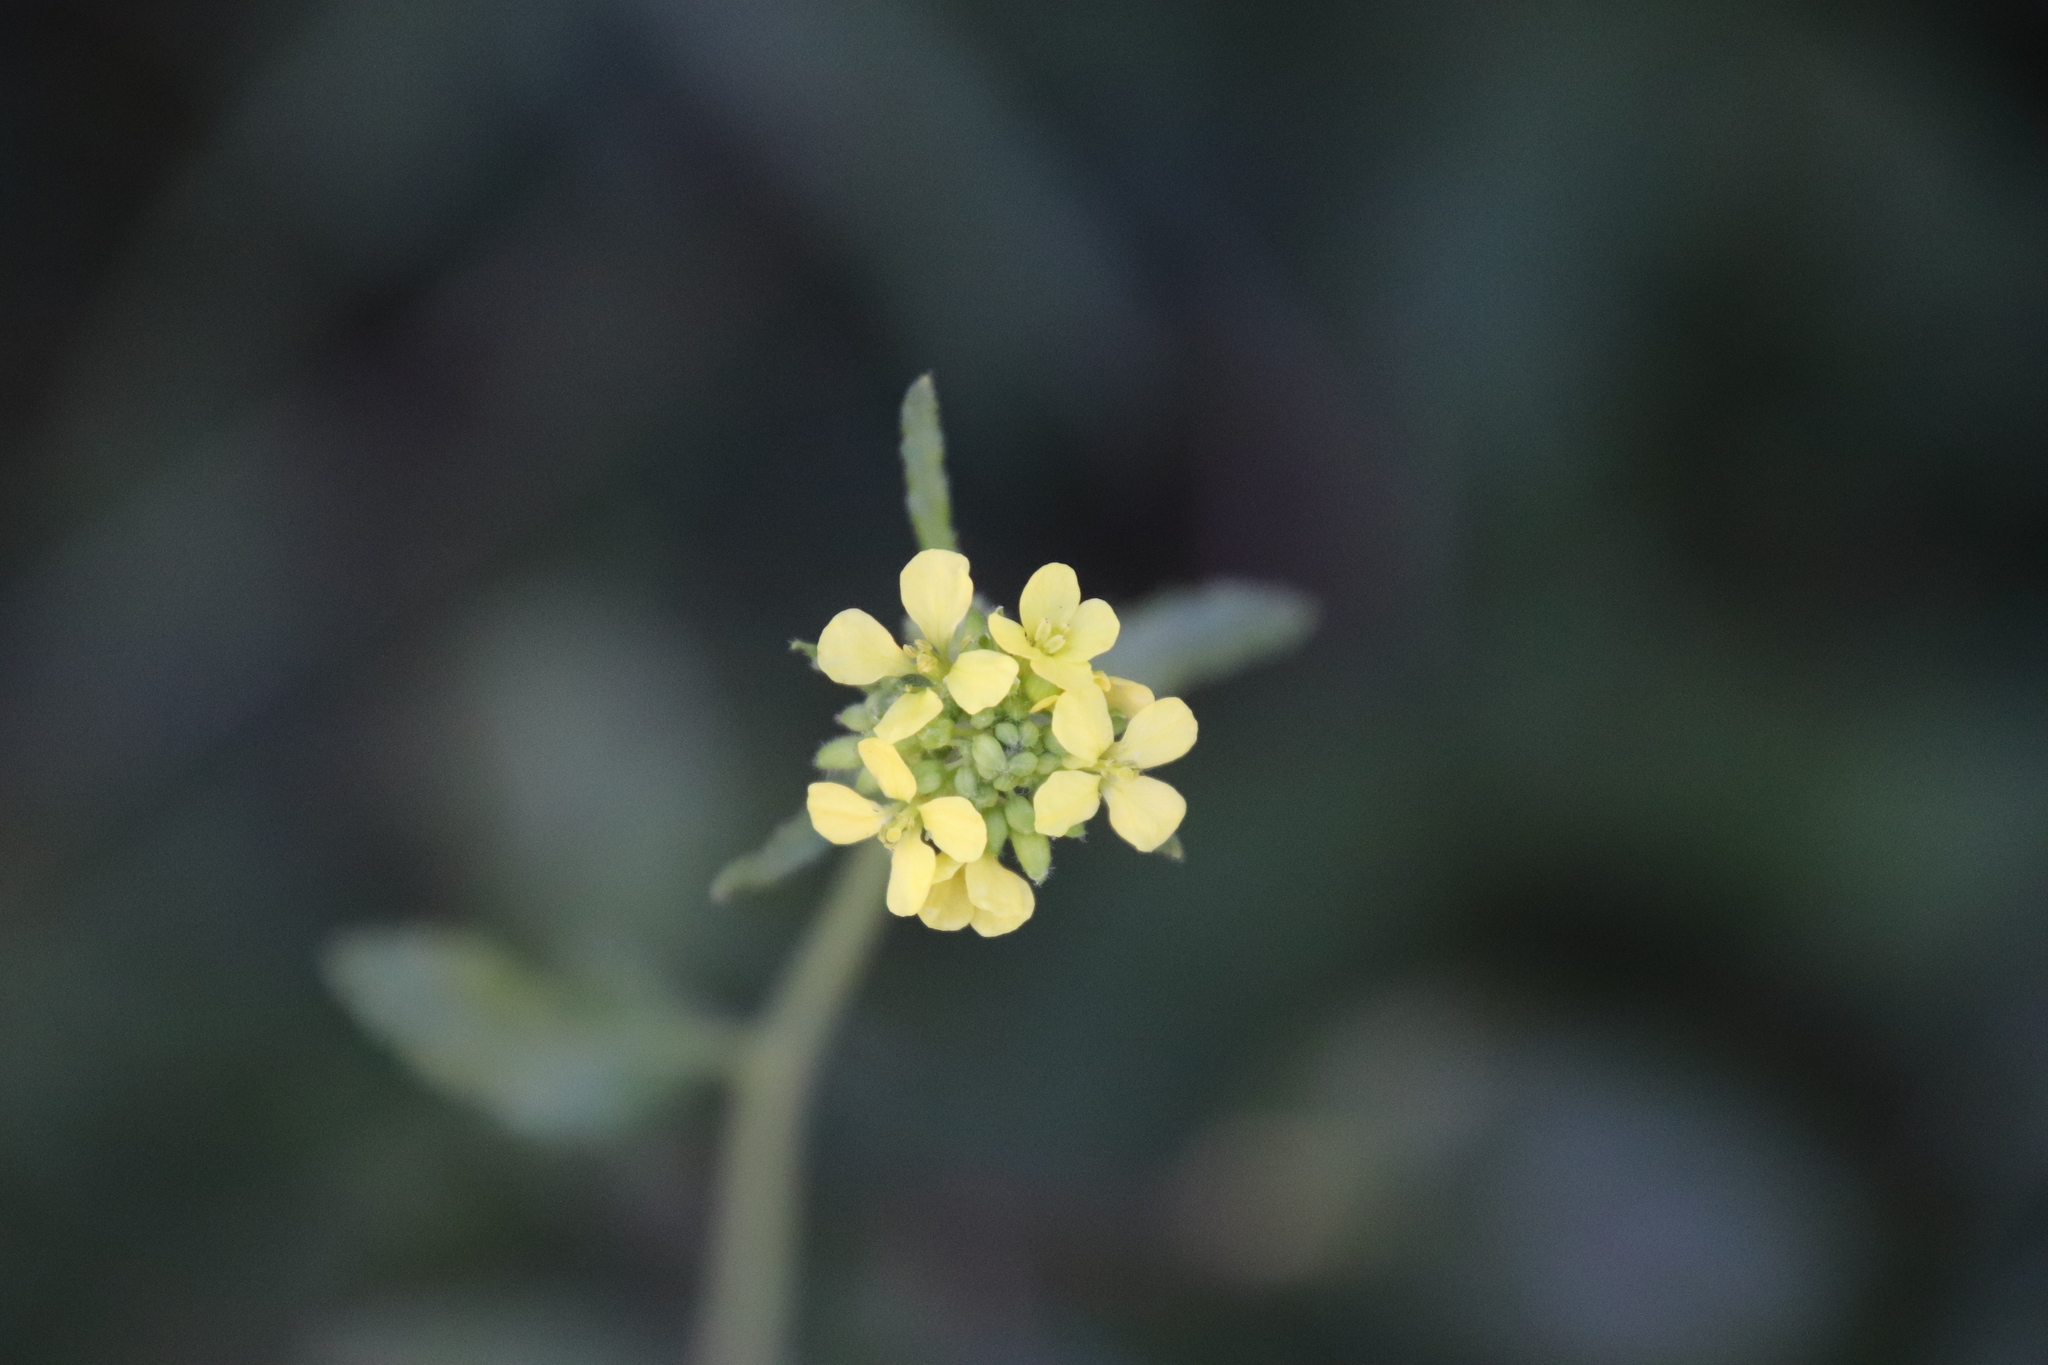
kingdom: Plantae
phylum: Tracheophyta
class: Magnoliopsida
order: Brassicales
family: Brassicaceae
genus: Hirschfeldia
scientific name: Hirschfeldia incana
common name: Hoary mustard
